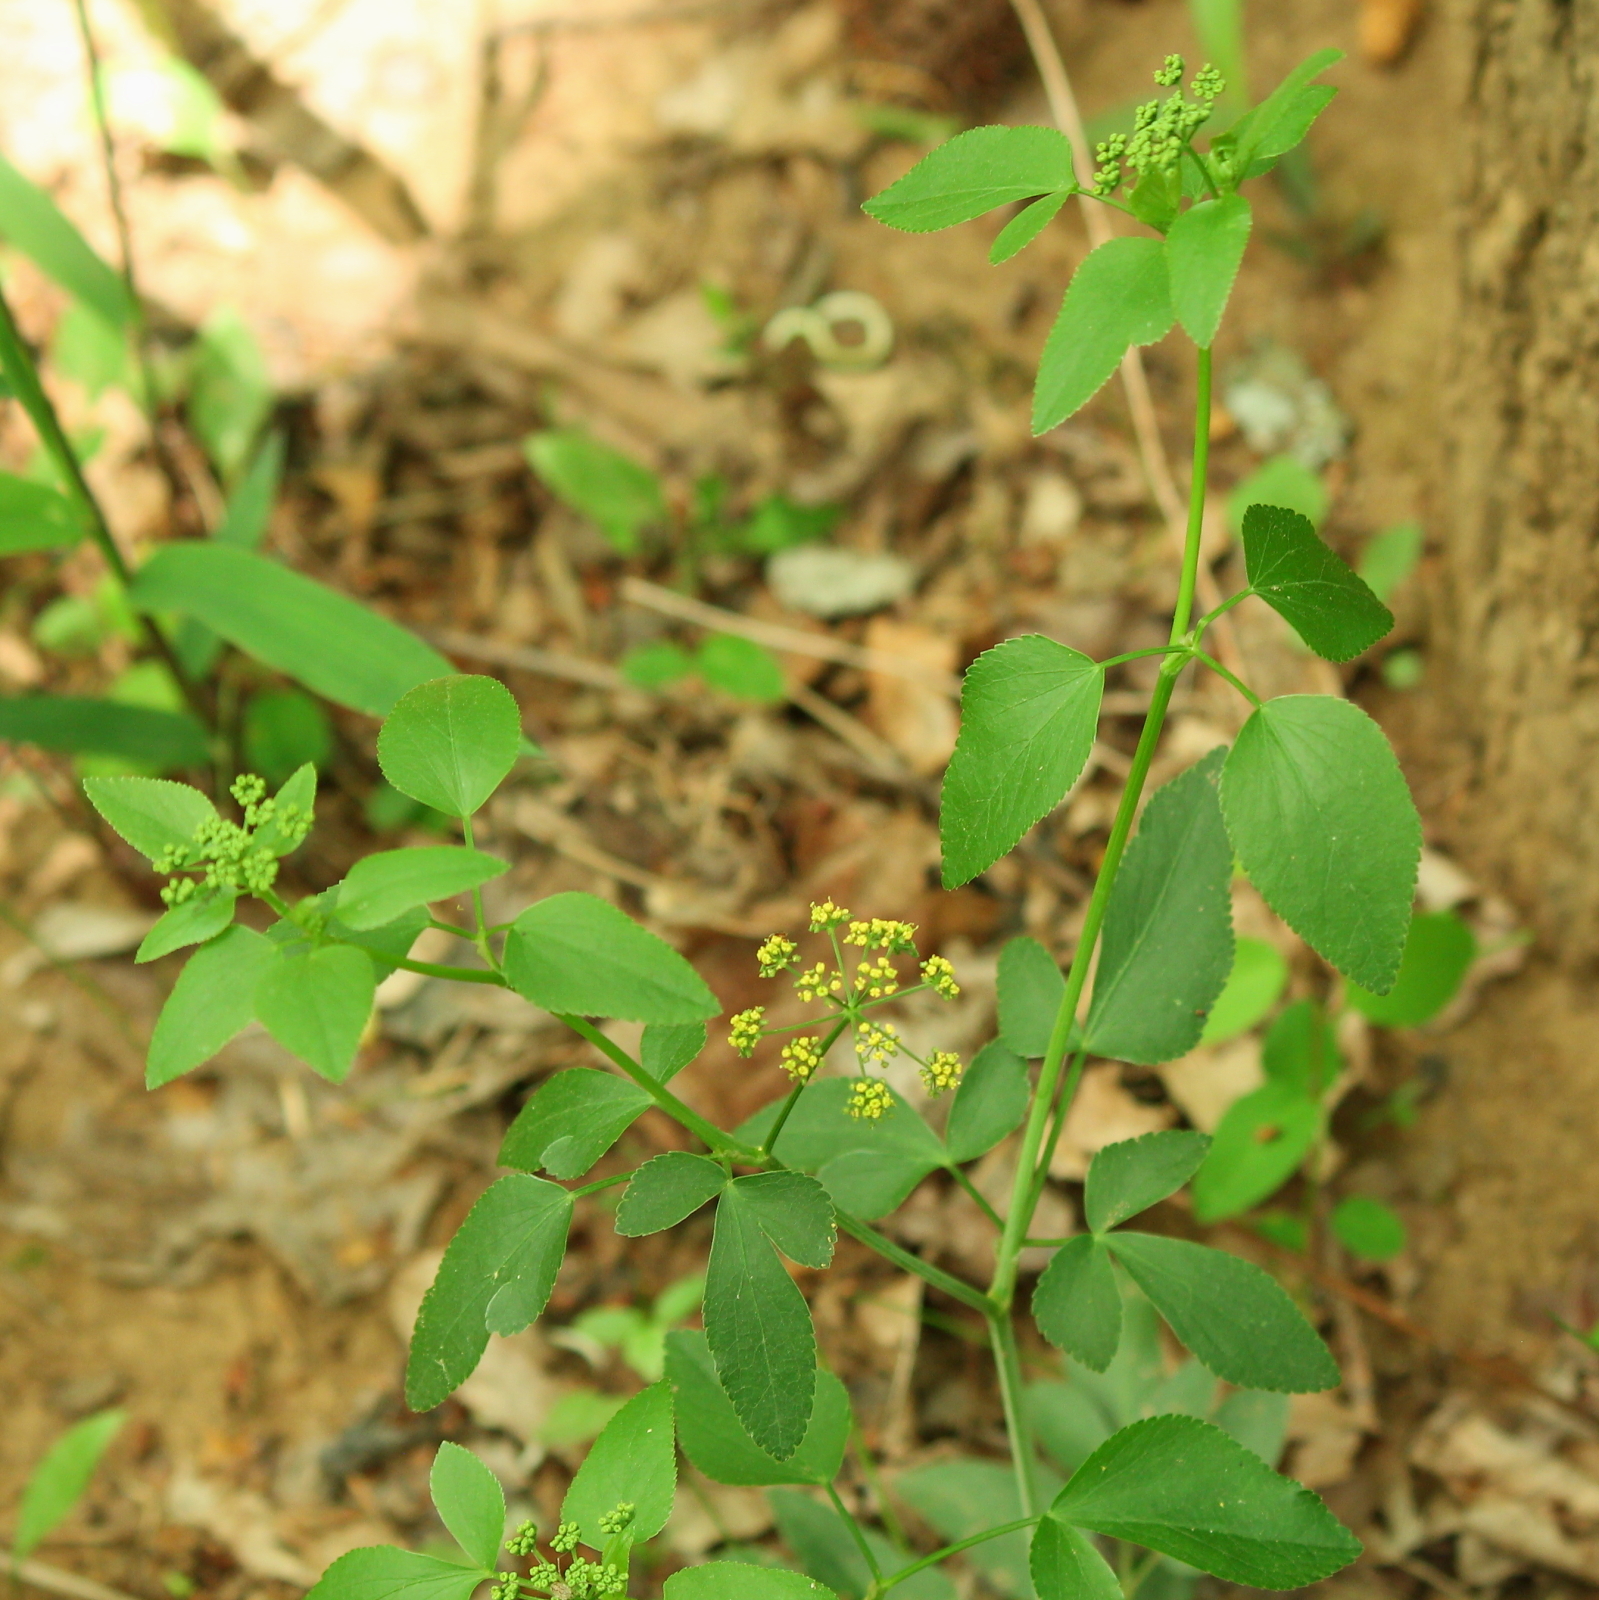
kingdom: Plantae
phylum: Tracheophyta
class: Magnoliopsida
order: Apiales
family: Apiaceae
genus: Thaspium
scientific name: Thaspium trifoliatum
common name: Purple meadow-parsnip
